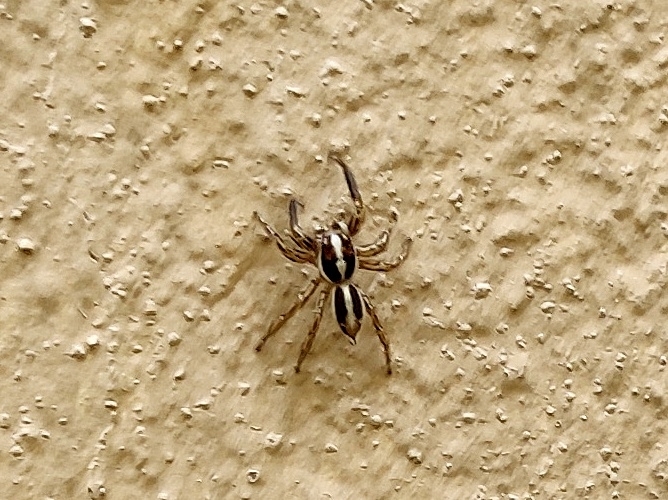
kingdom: Animalia
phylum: Arthropoda
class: Arachnida
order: Araneae
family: Salticidae
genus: Plexippus
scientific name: Plexippus paykulli
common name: Pantropical jumper
